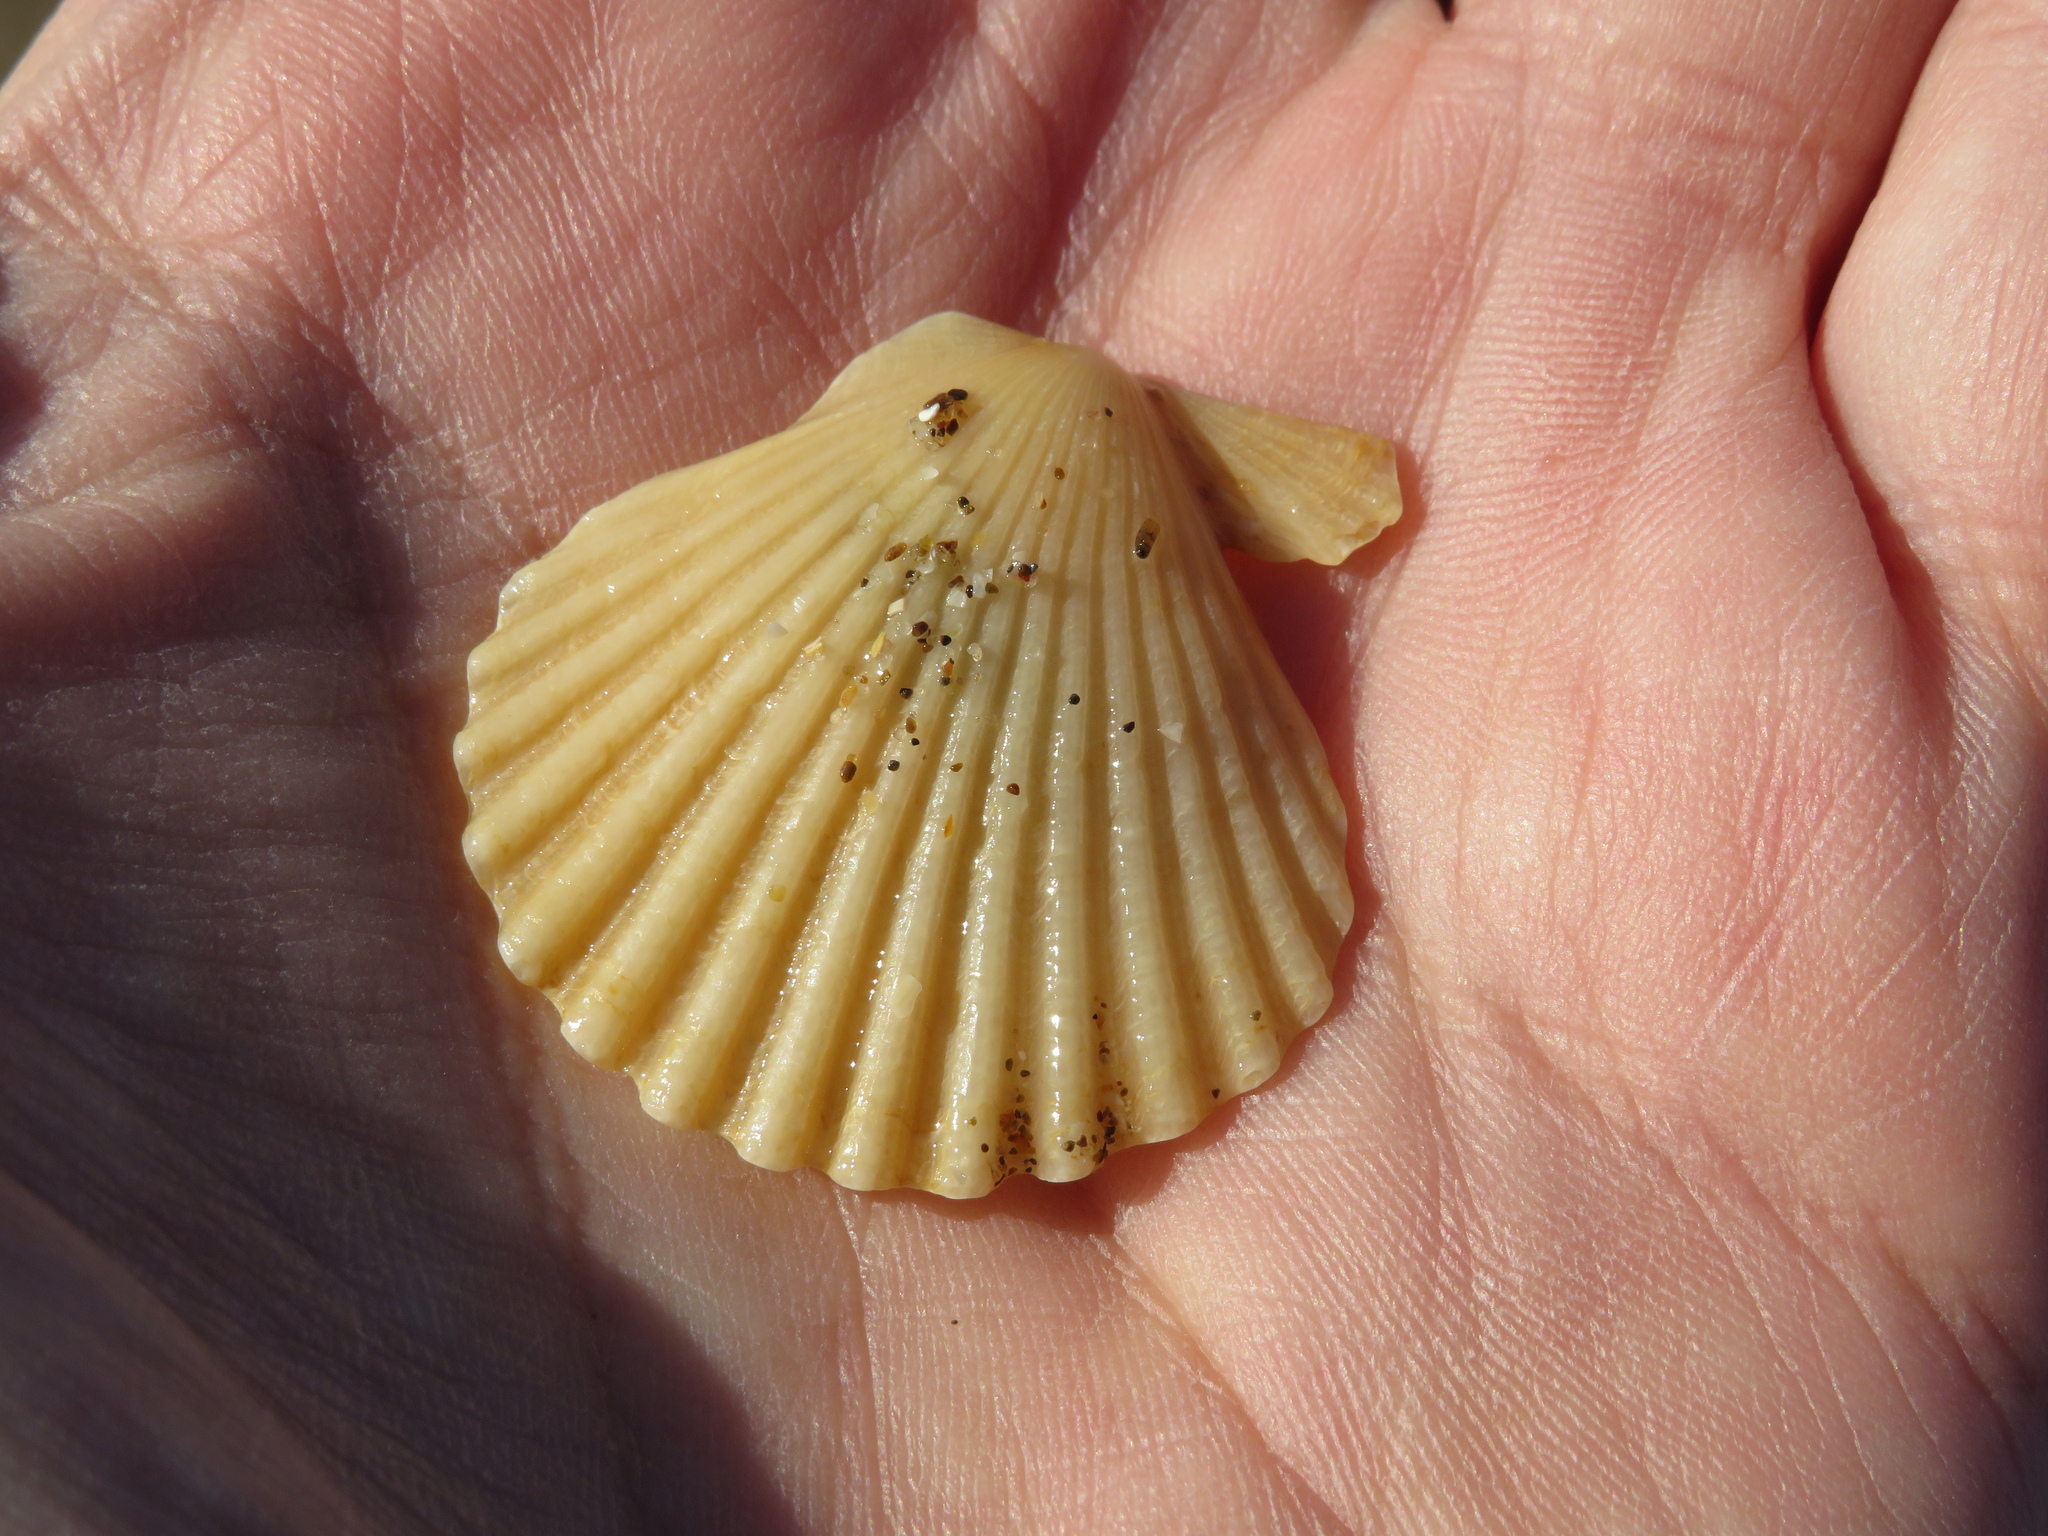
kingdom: Animalia
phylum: Mollusca
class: Bivalvia
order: Pectinida
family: Pectinidae
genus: Aequipecten
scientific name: Aequipecten tehuelchus
